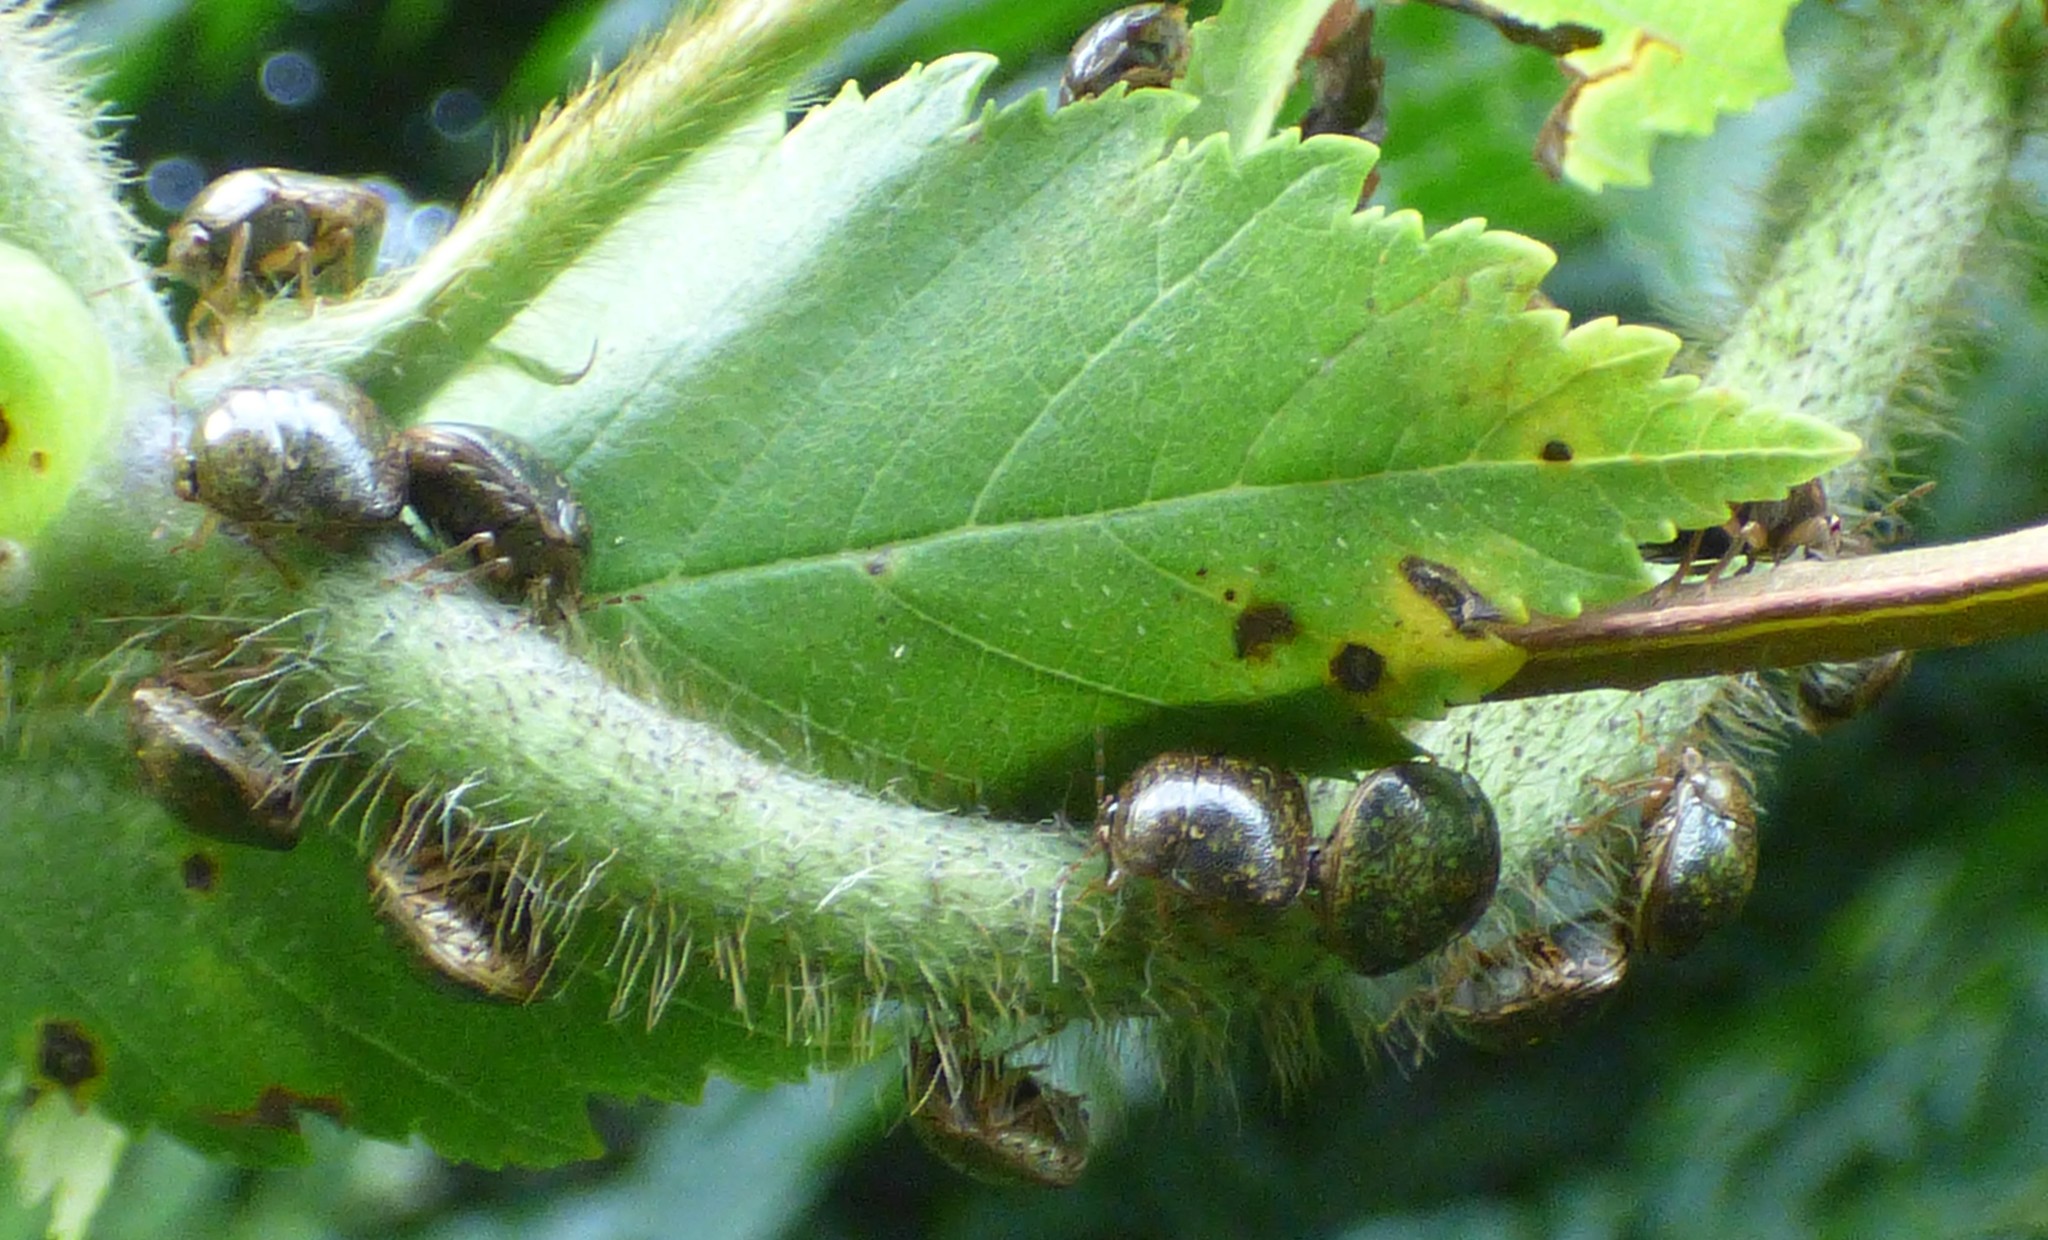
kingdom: Animalia
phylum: Arthropoda
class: Insecta
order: Hemiptera
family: Plataspidae
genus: Megacopta
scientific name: Megacopta cribraria
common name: Bean plataspid
